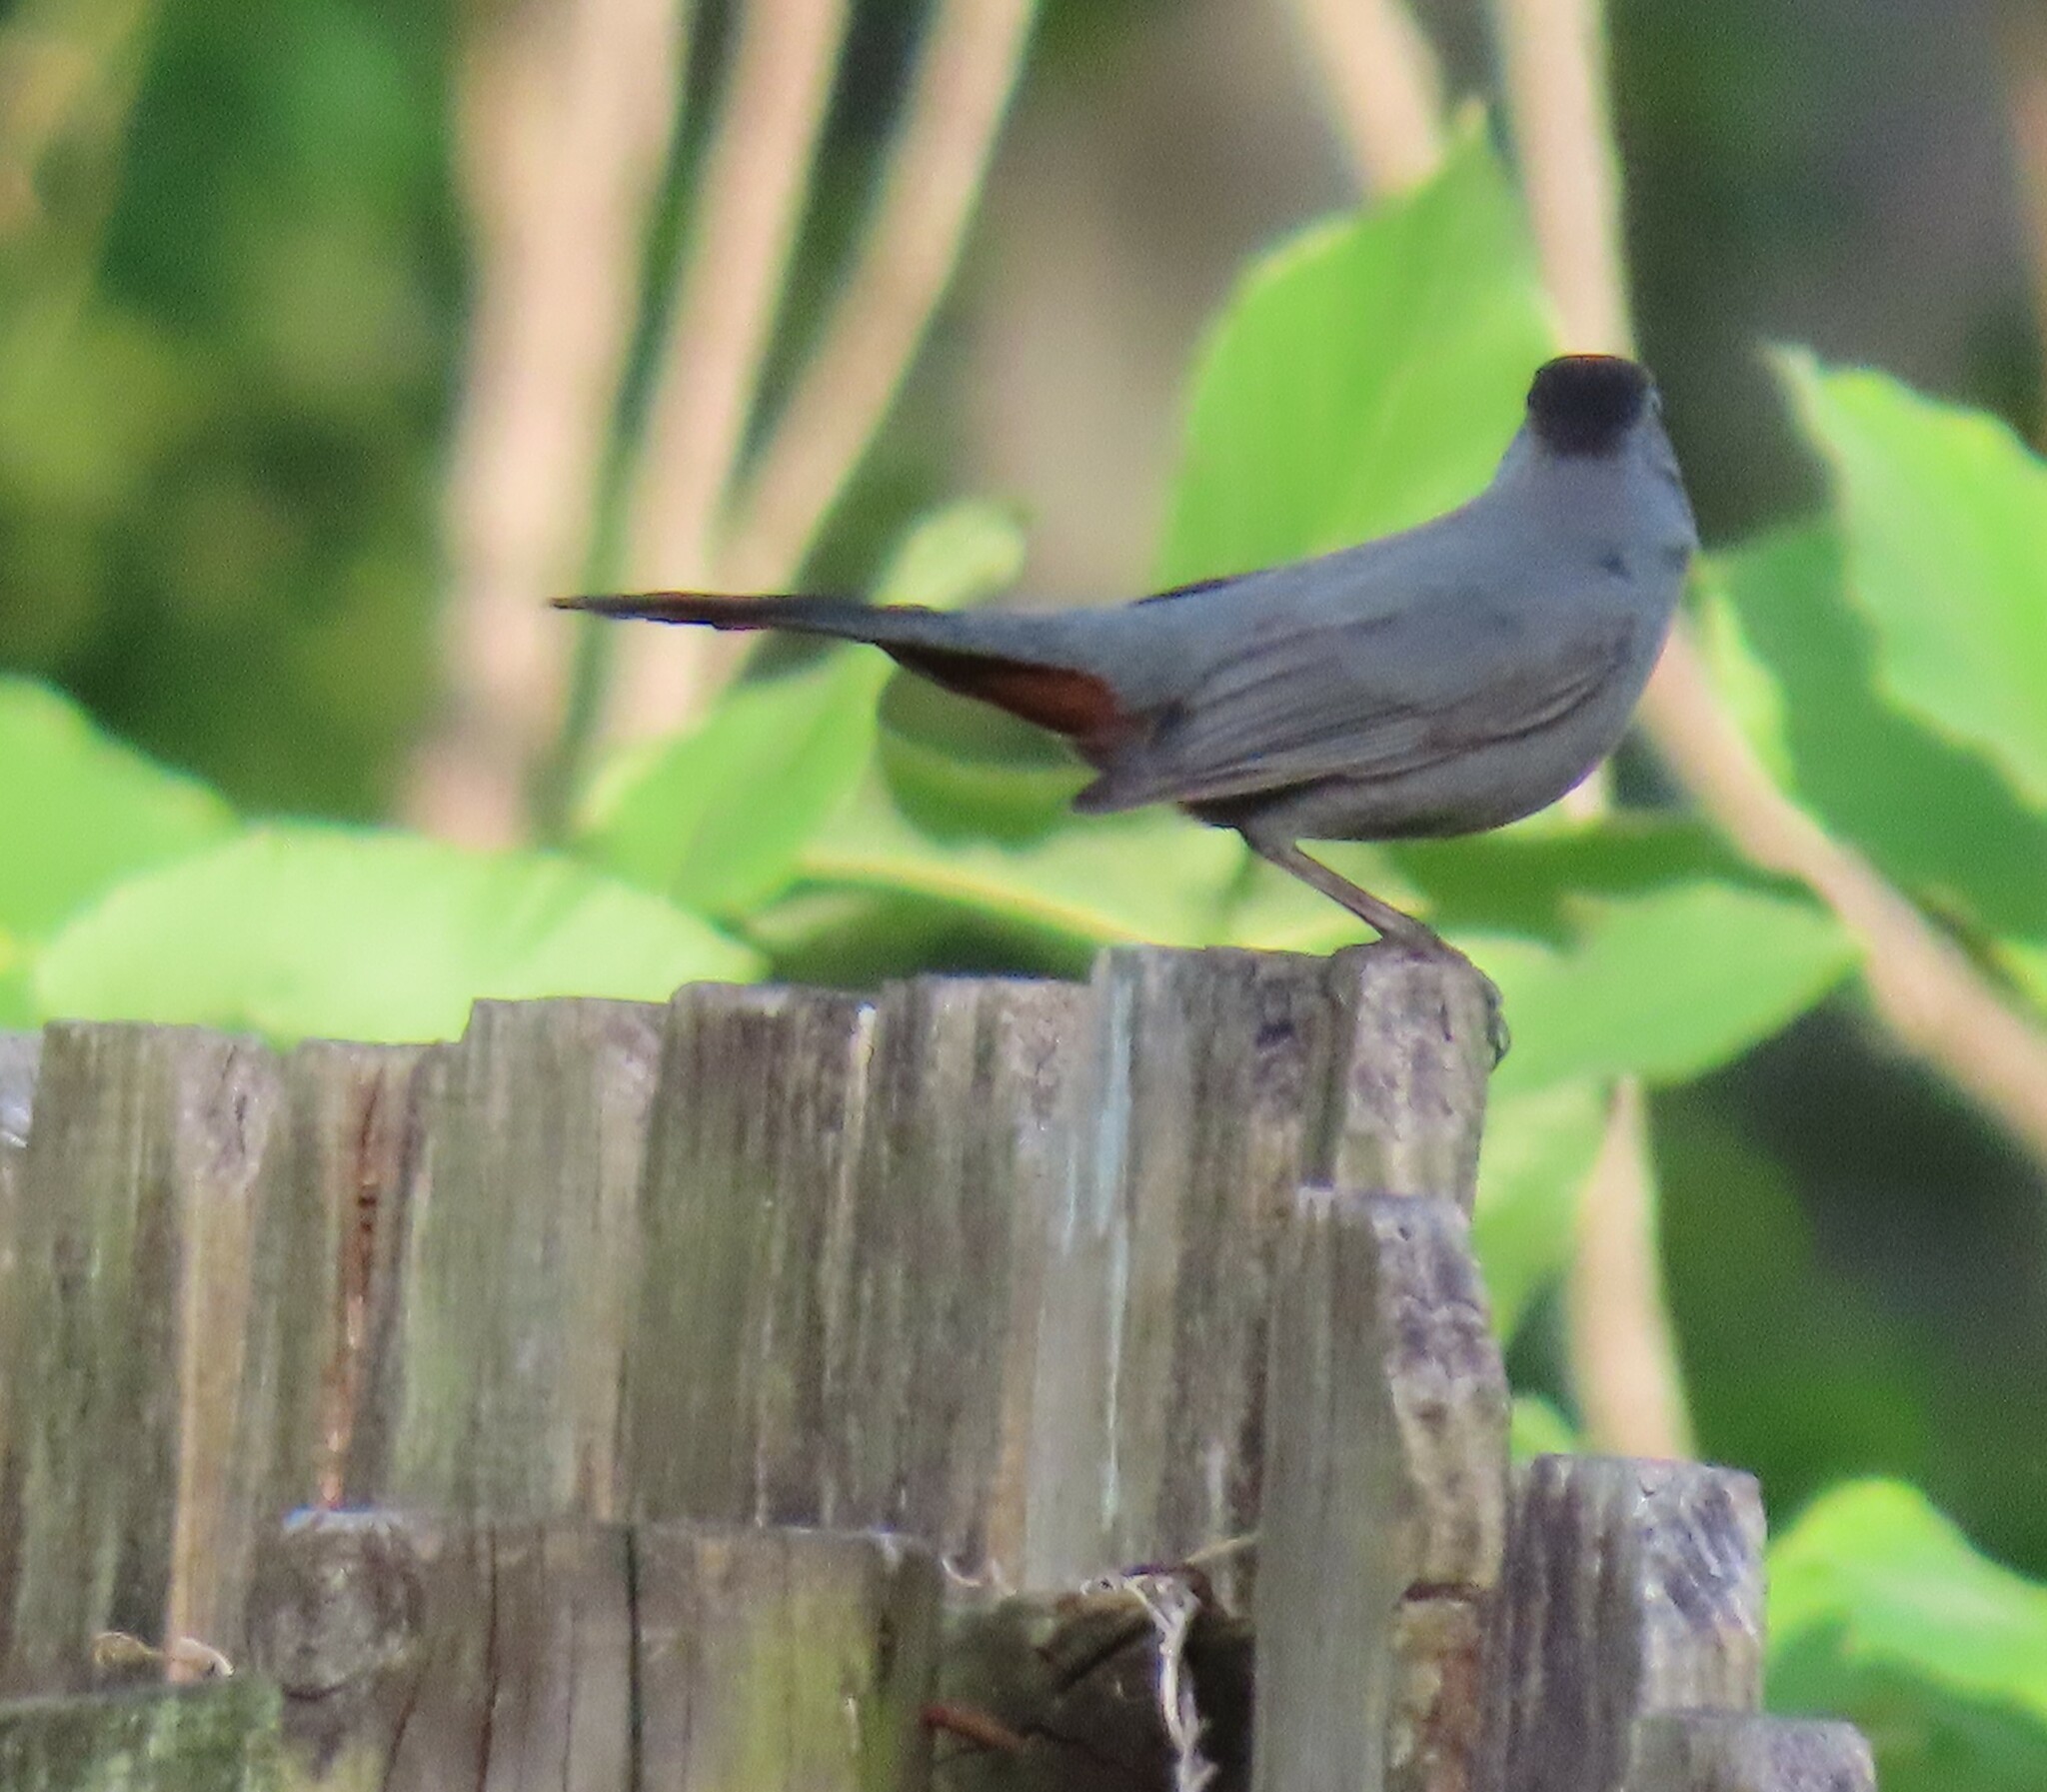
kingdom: Animalia
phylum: Chordata
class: Aves
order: Passeriformes
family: Mimidae
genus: Dumetella
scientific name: Dumetella carolinensis
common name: Gray catbird
